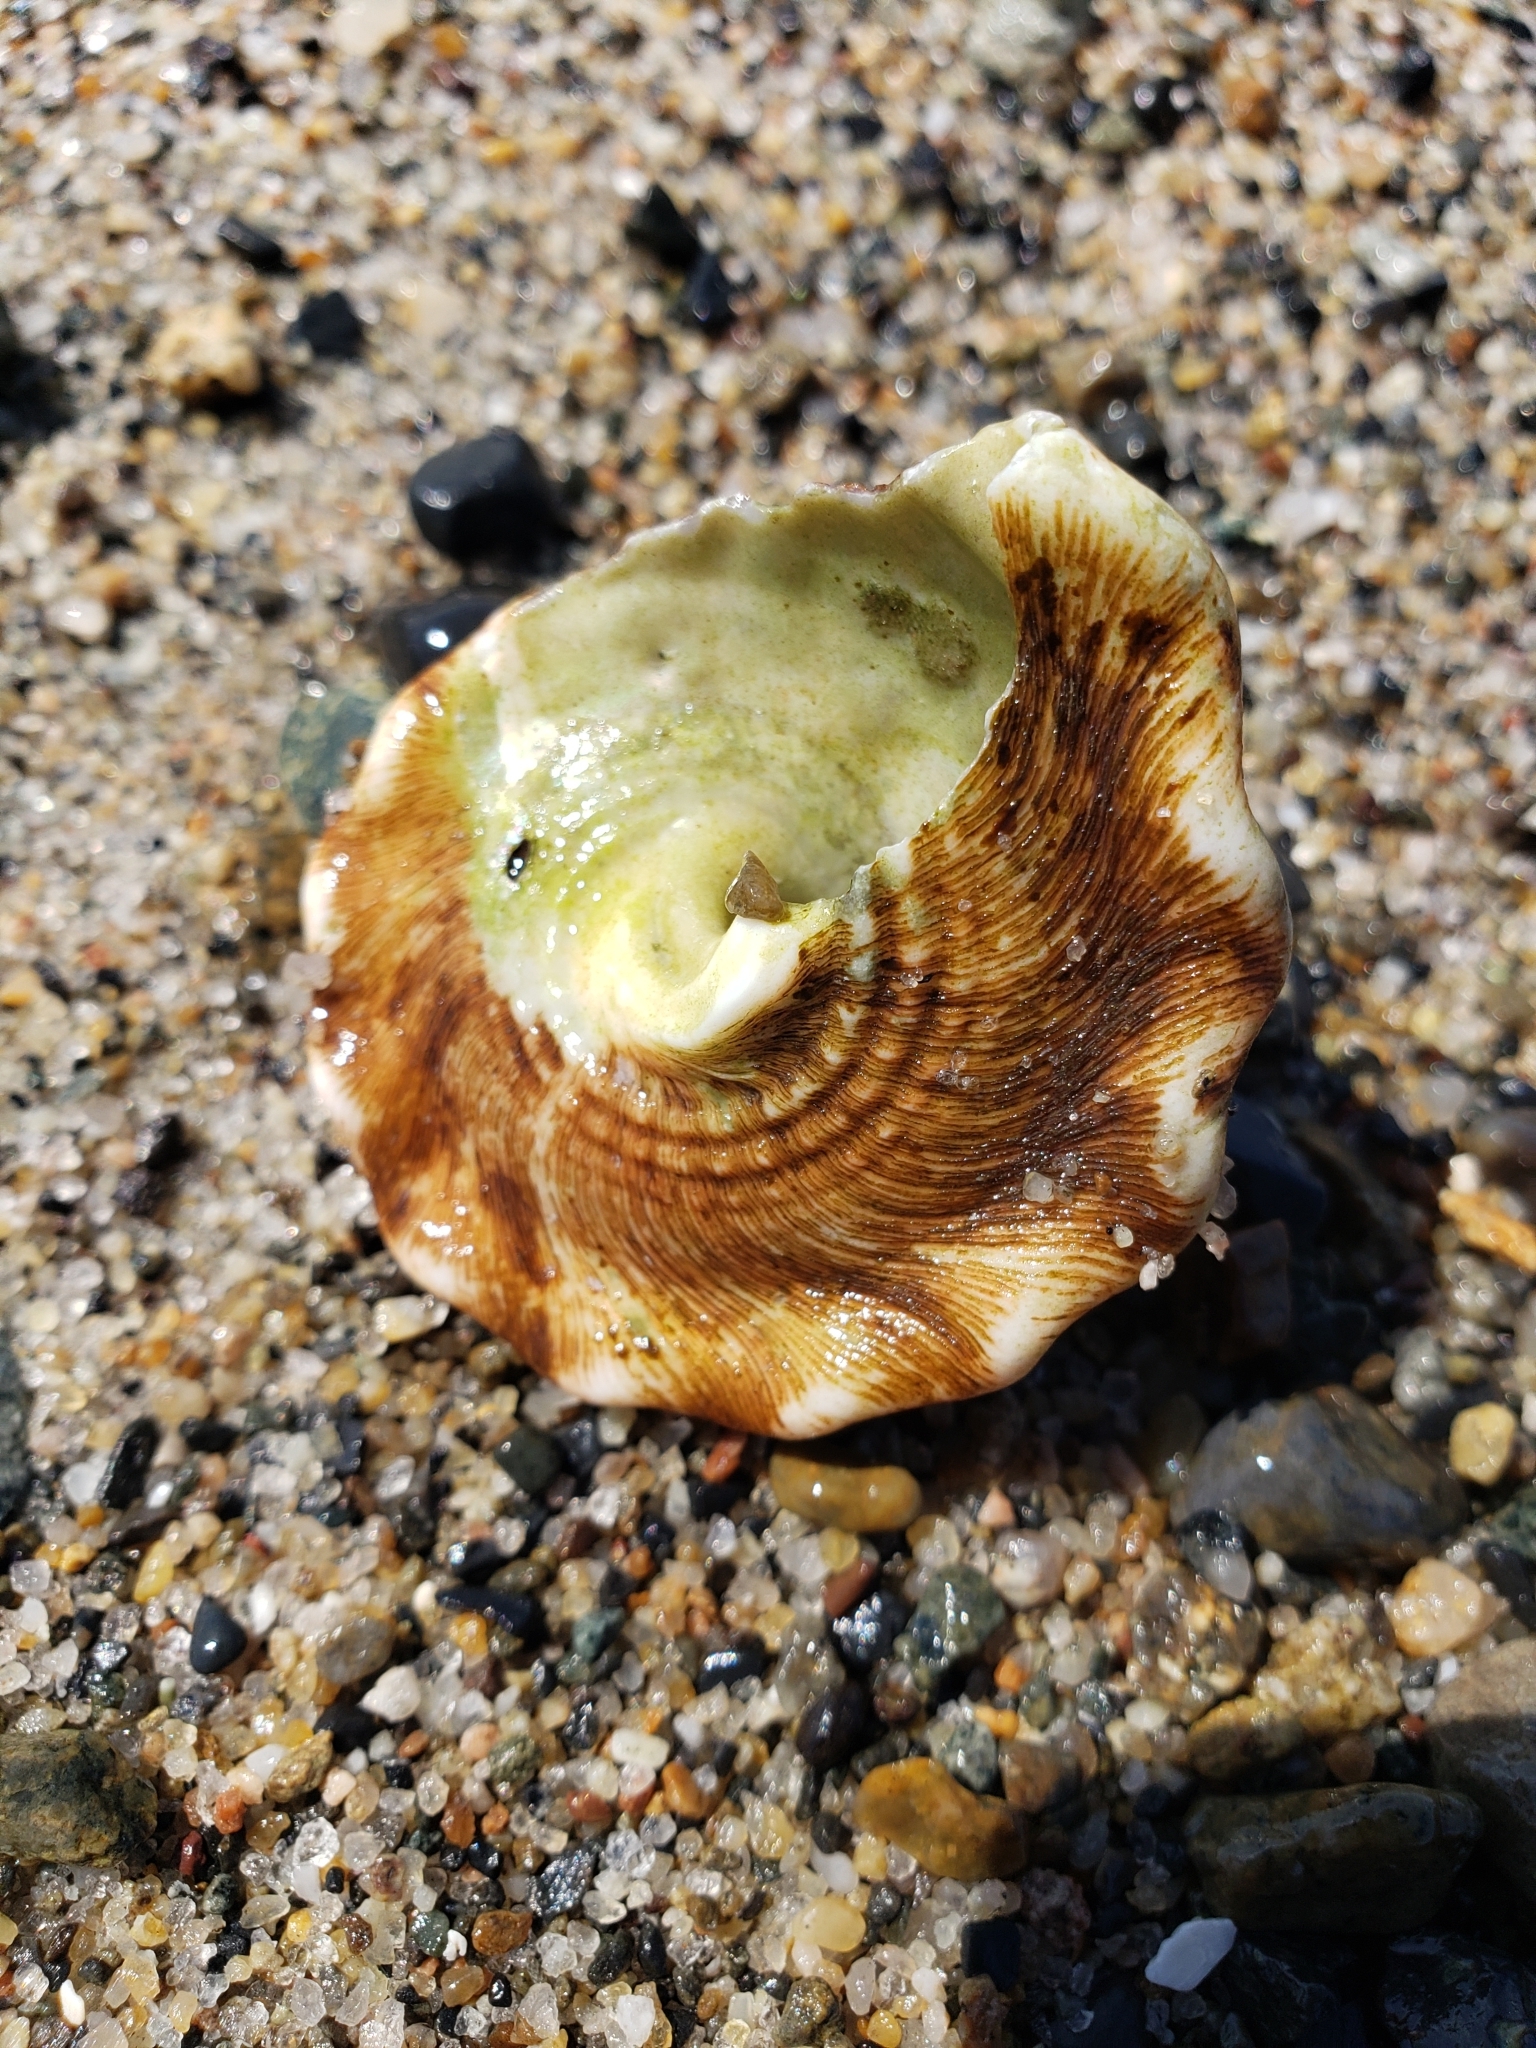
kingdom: Animalia
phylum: Mollusca
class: Gastropoda
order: Trochida
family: Turbinidae
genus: Megastraea
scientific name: Megastraea undosa
